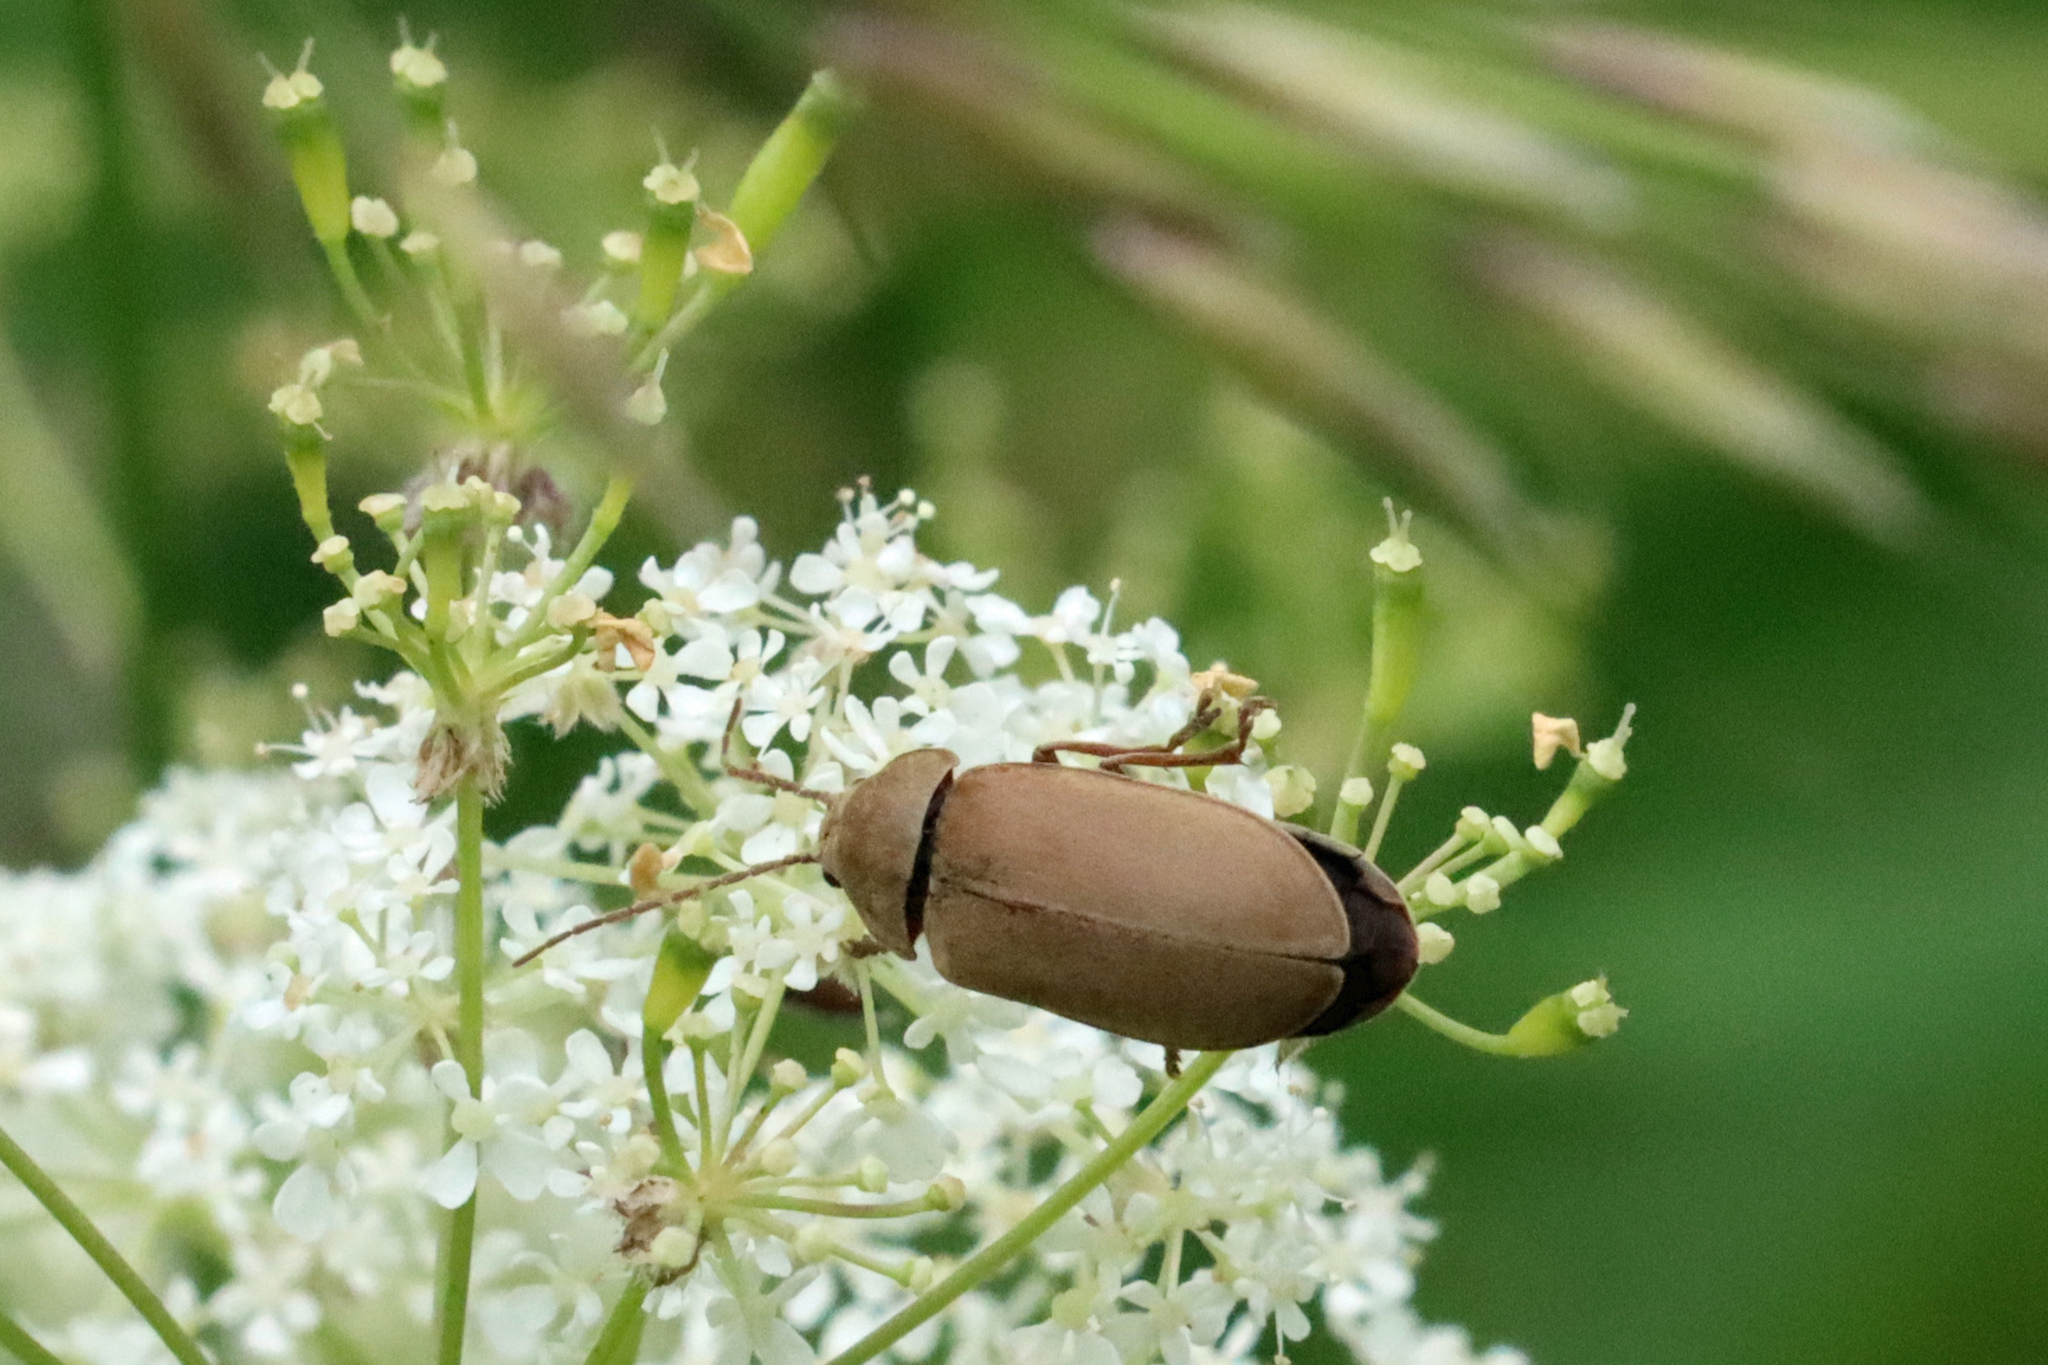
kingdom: Animalia
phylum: Arthropoda
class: Insecta
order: Coleoptera
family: Dascillidae
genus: Dascillus
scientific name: Dascillus cervinus
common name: Orchid beetle
